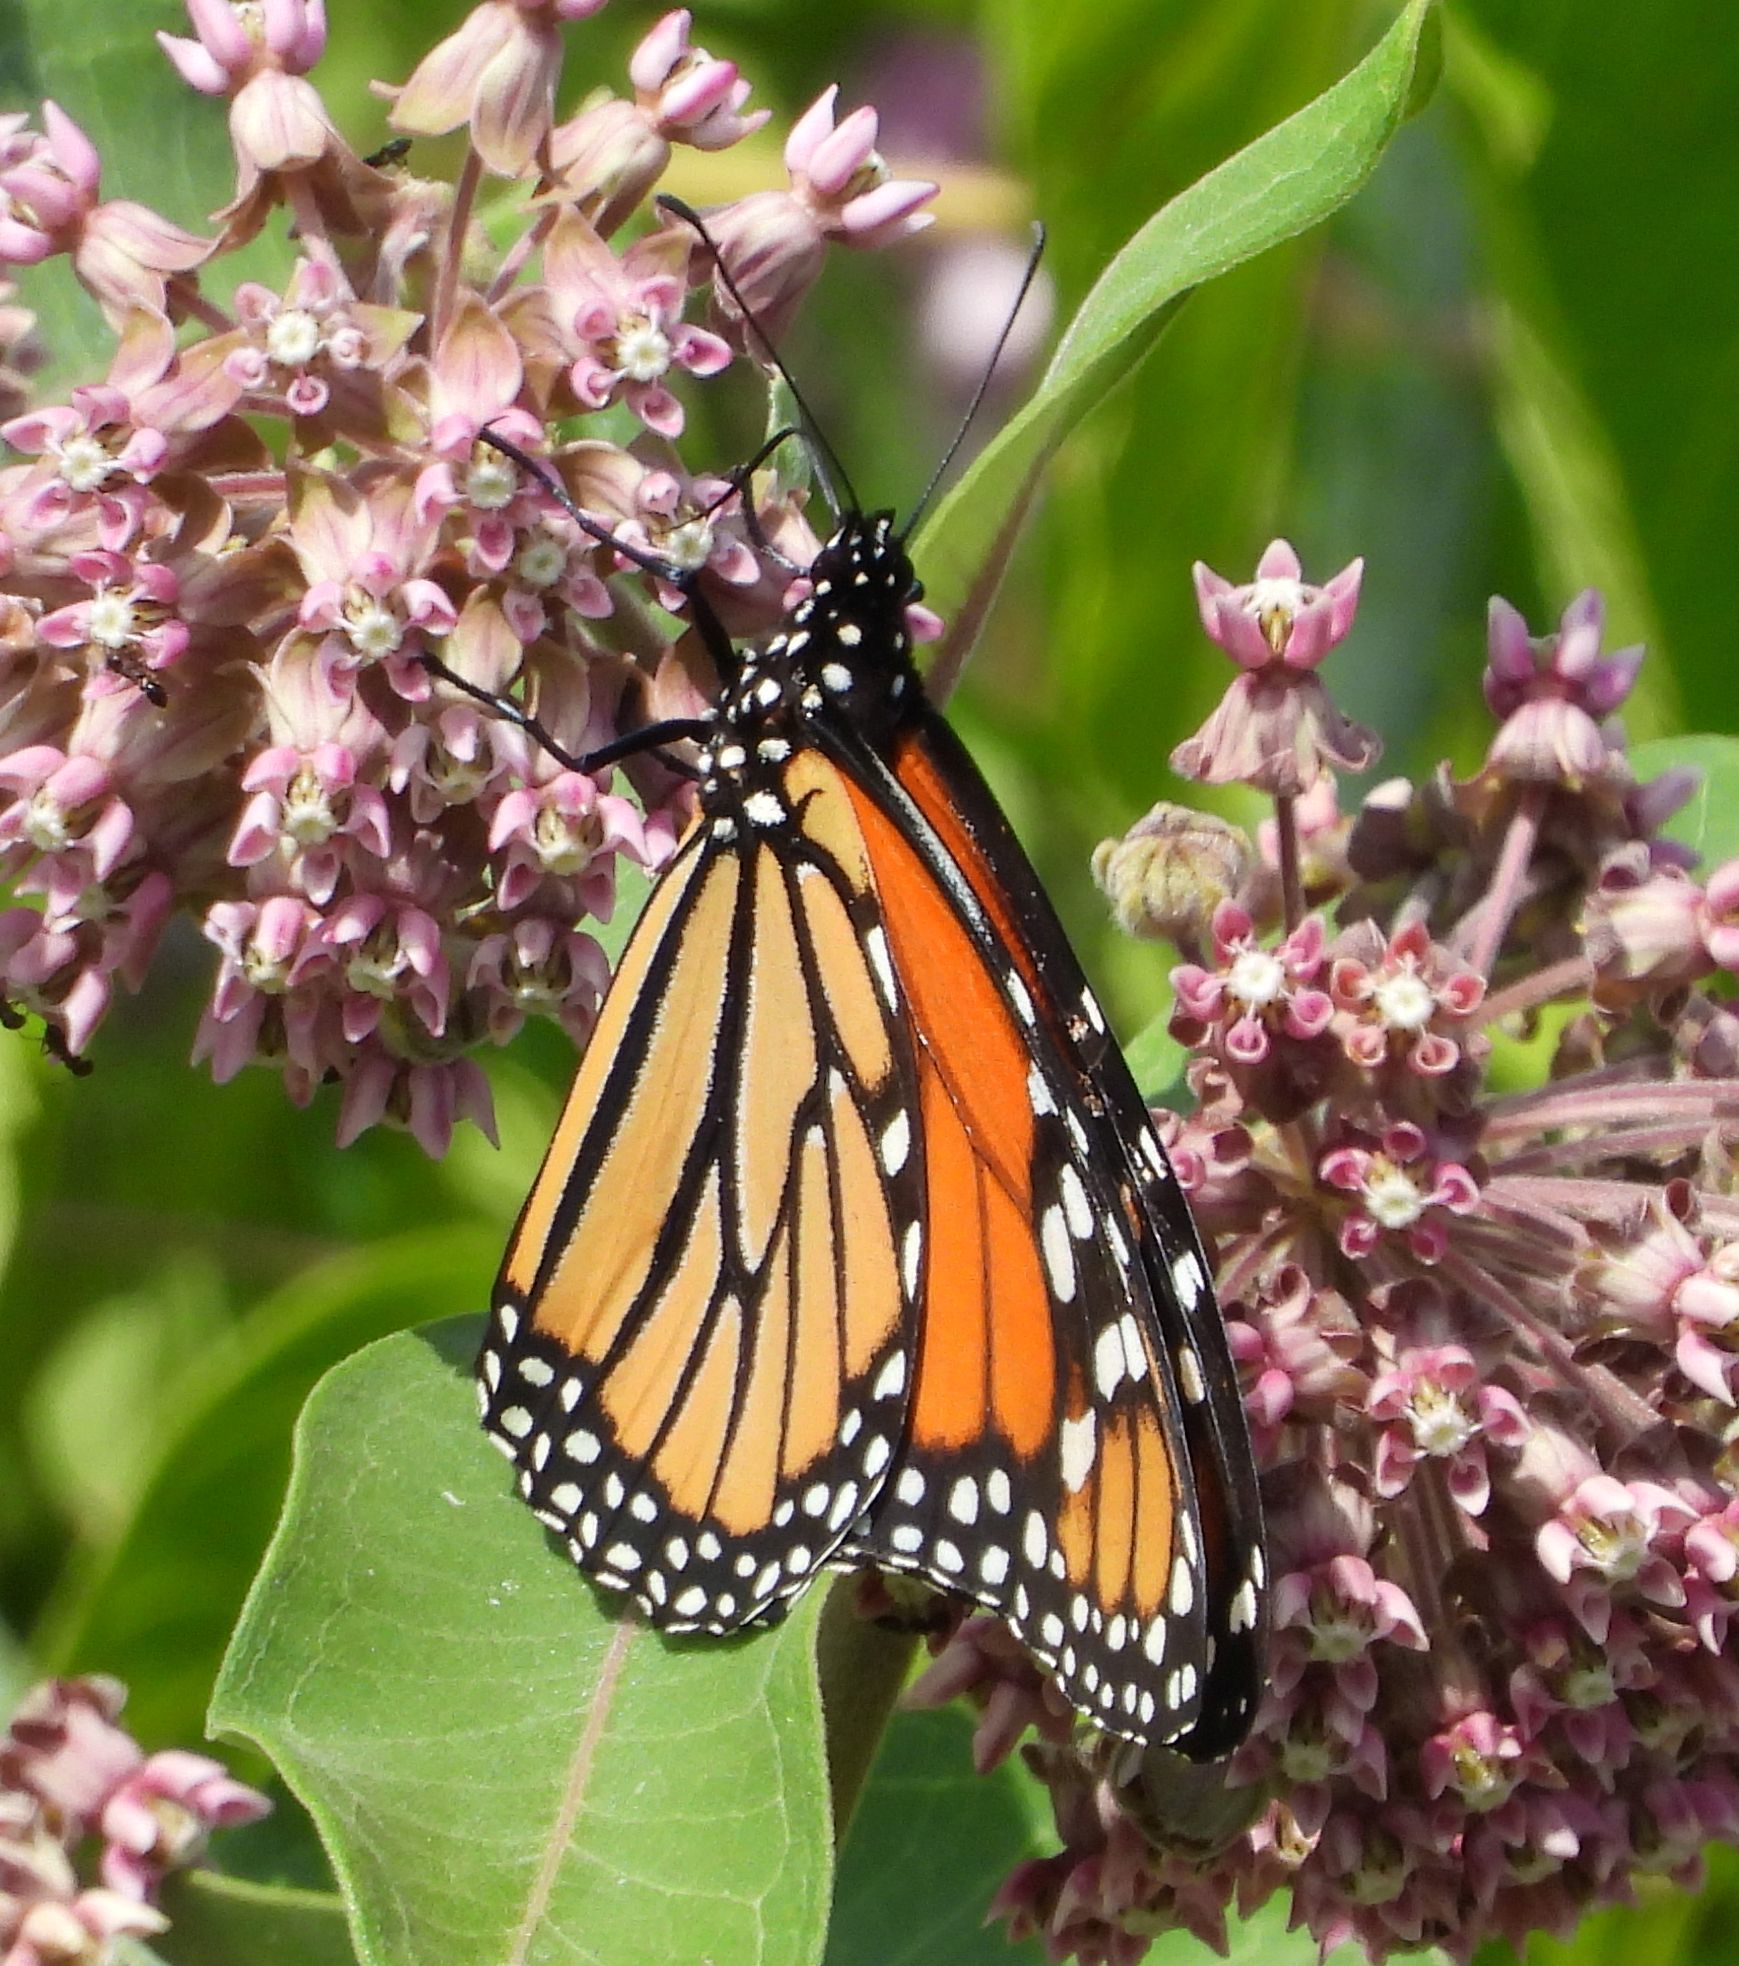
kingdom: Animalia
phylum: Arthropoda
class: Insecta
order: Lepidoptera
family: Nymphalidae
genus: Danaus
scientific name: Danaus plexippus
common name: Monarch
